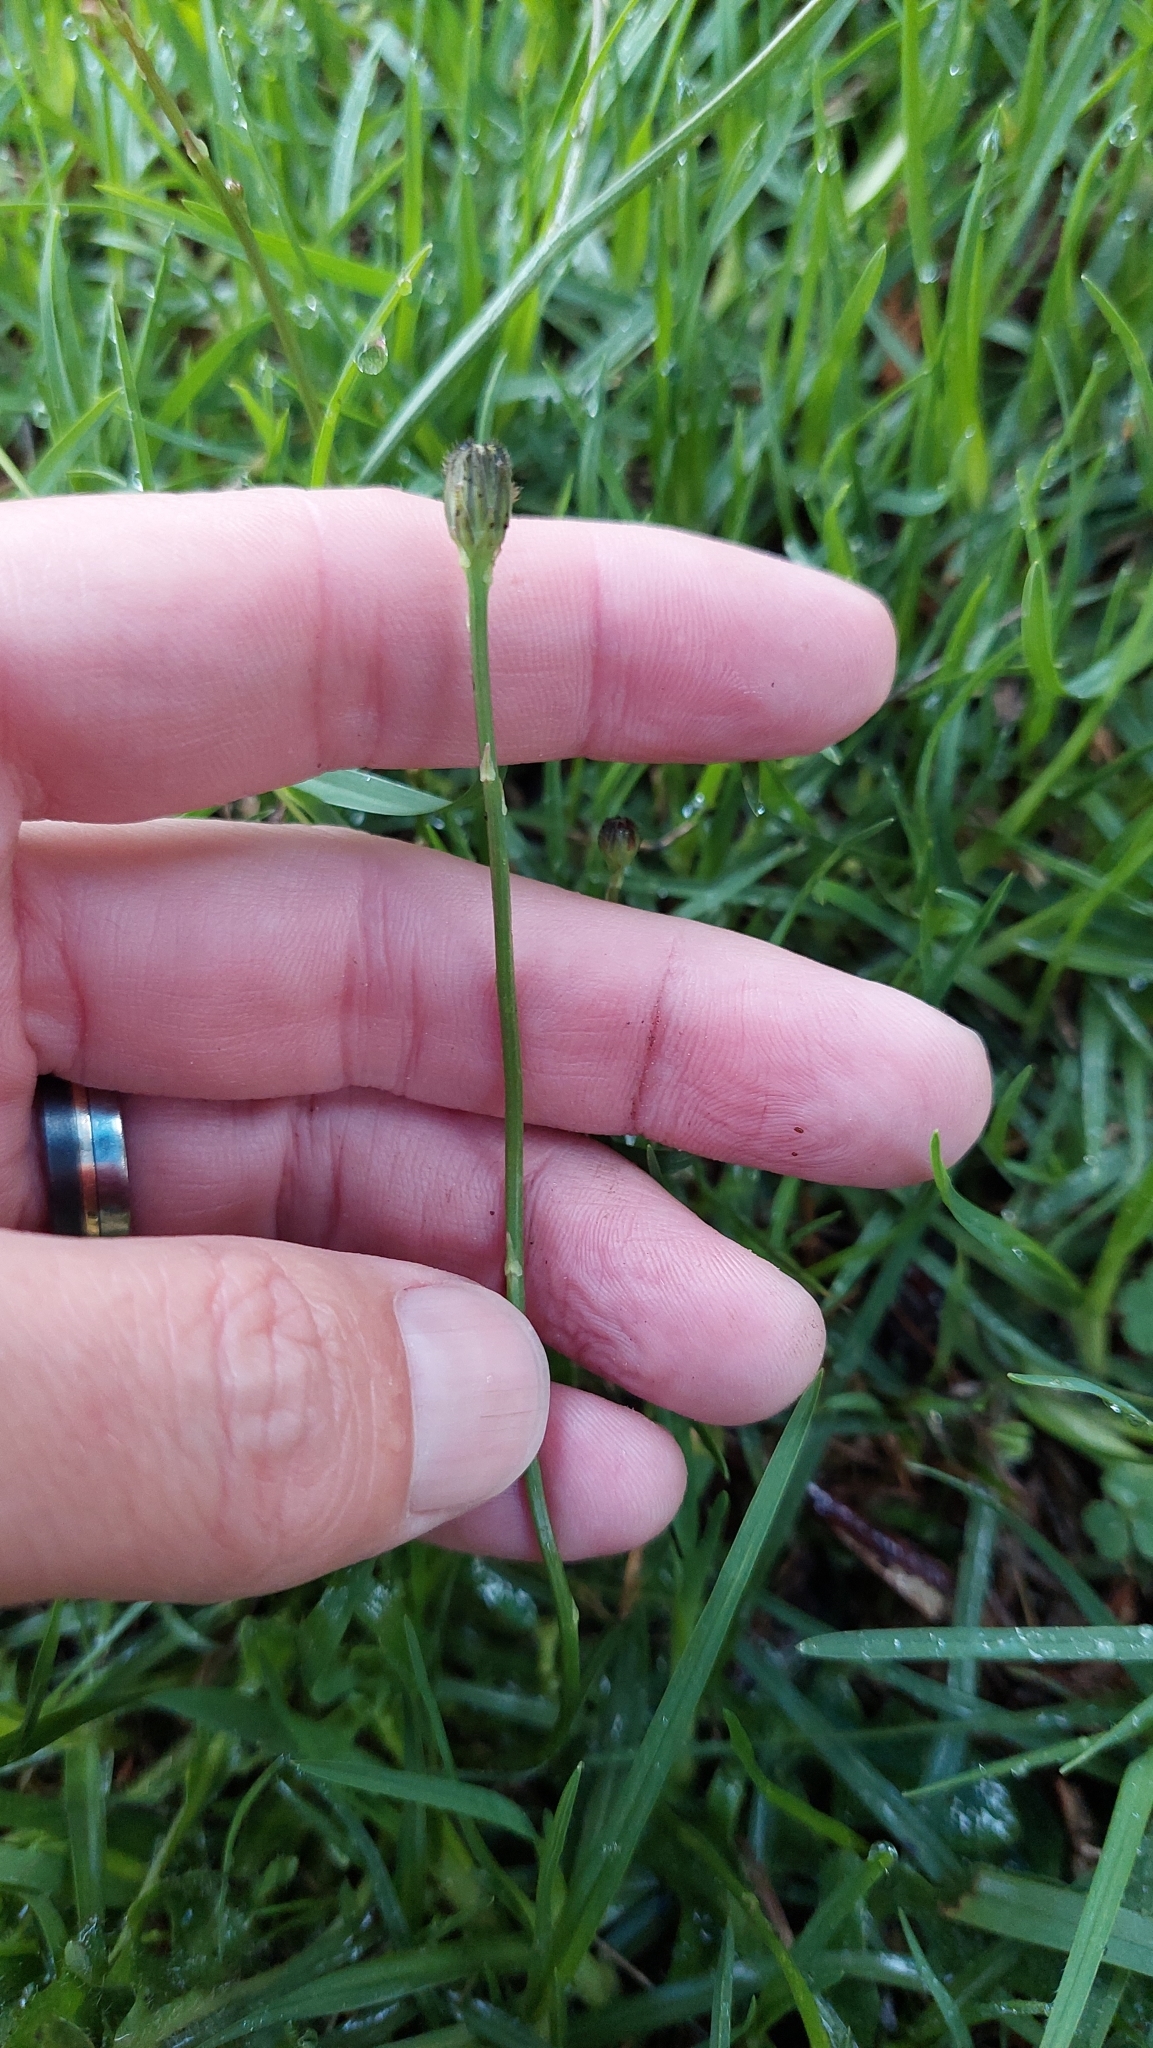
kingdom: Plantae
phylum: Tracheophyta
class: Magnoliopsida
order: Asterales
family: Asteraceae
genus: Hypochaeris
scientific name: Hypochaeris radicata
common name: Flatweed
